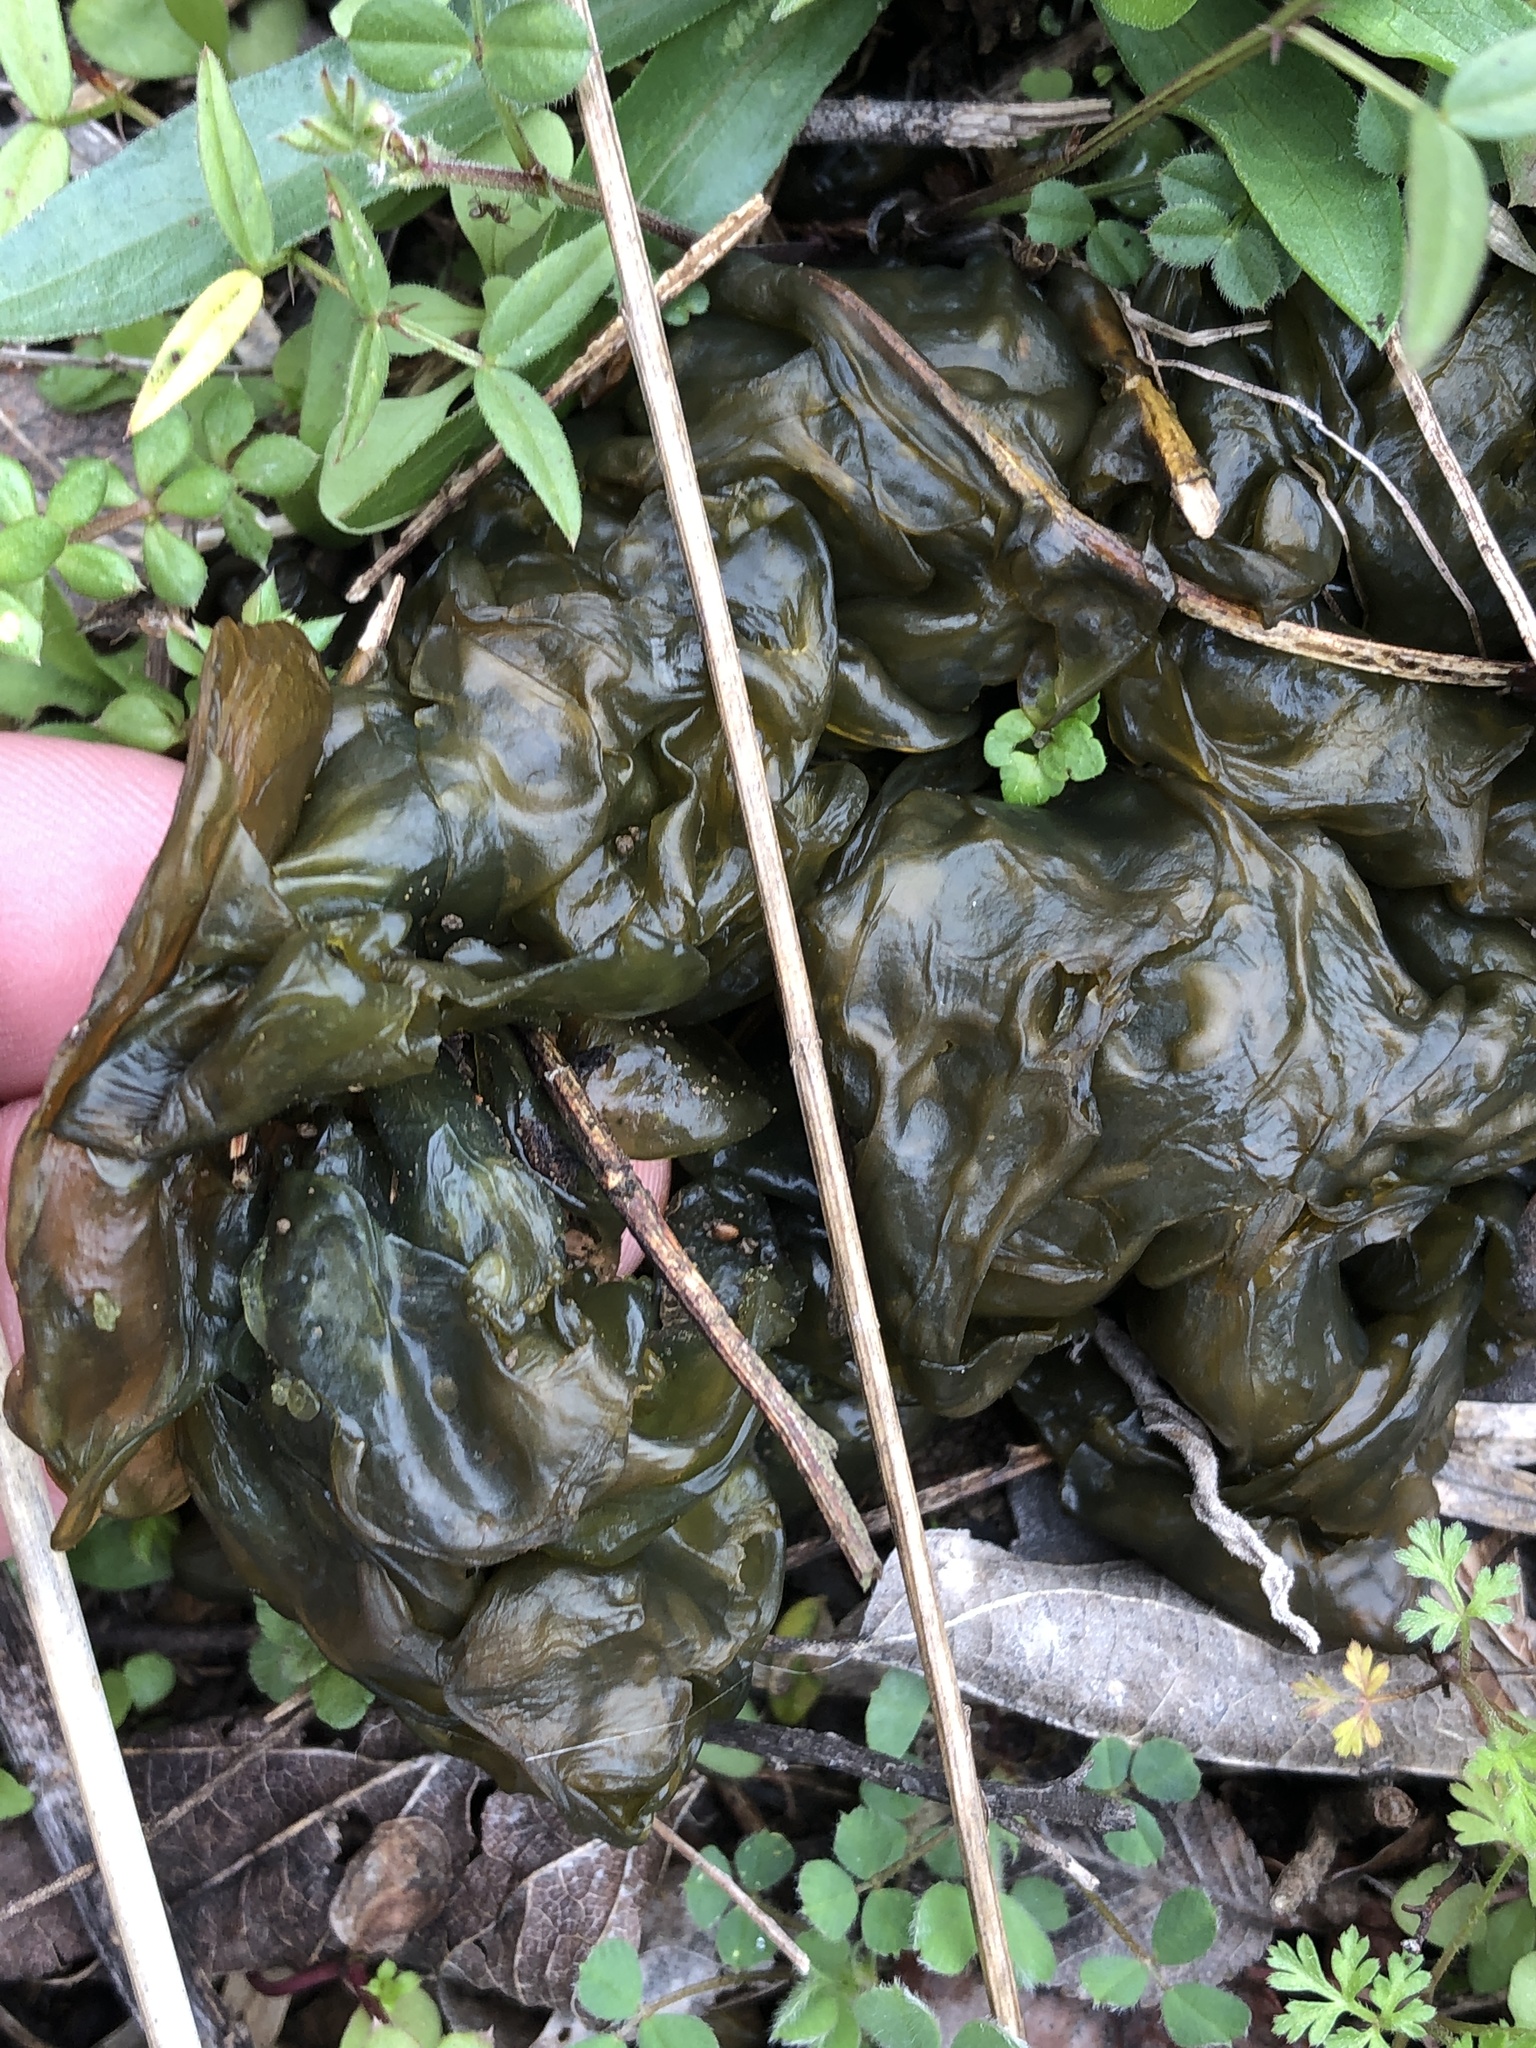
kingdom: Bacteria
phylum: Cyanobacteria
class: Cyanobacteriia
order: Cyanobacteriales
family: Nostocaceae
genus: Nostoc
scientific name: Nostoc commune
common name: Star jelly
